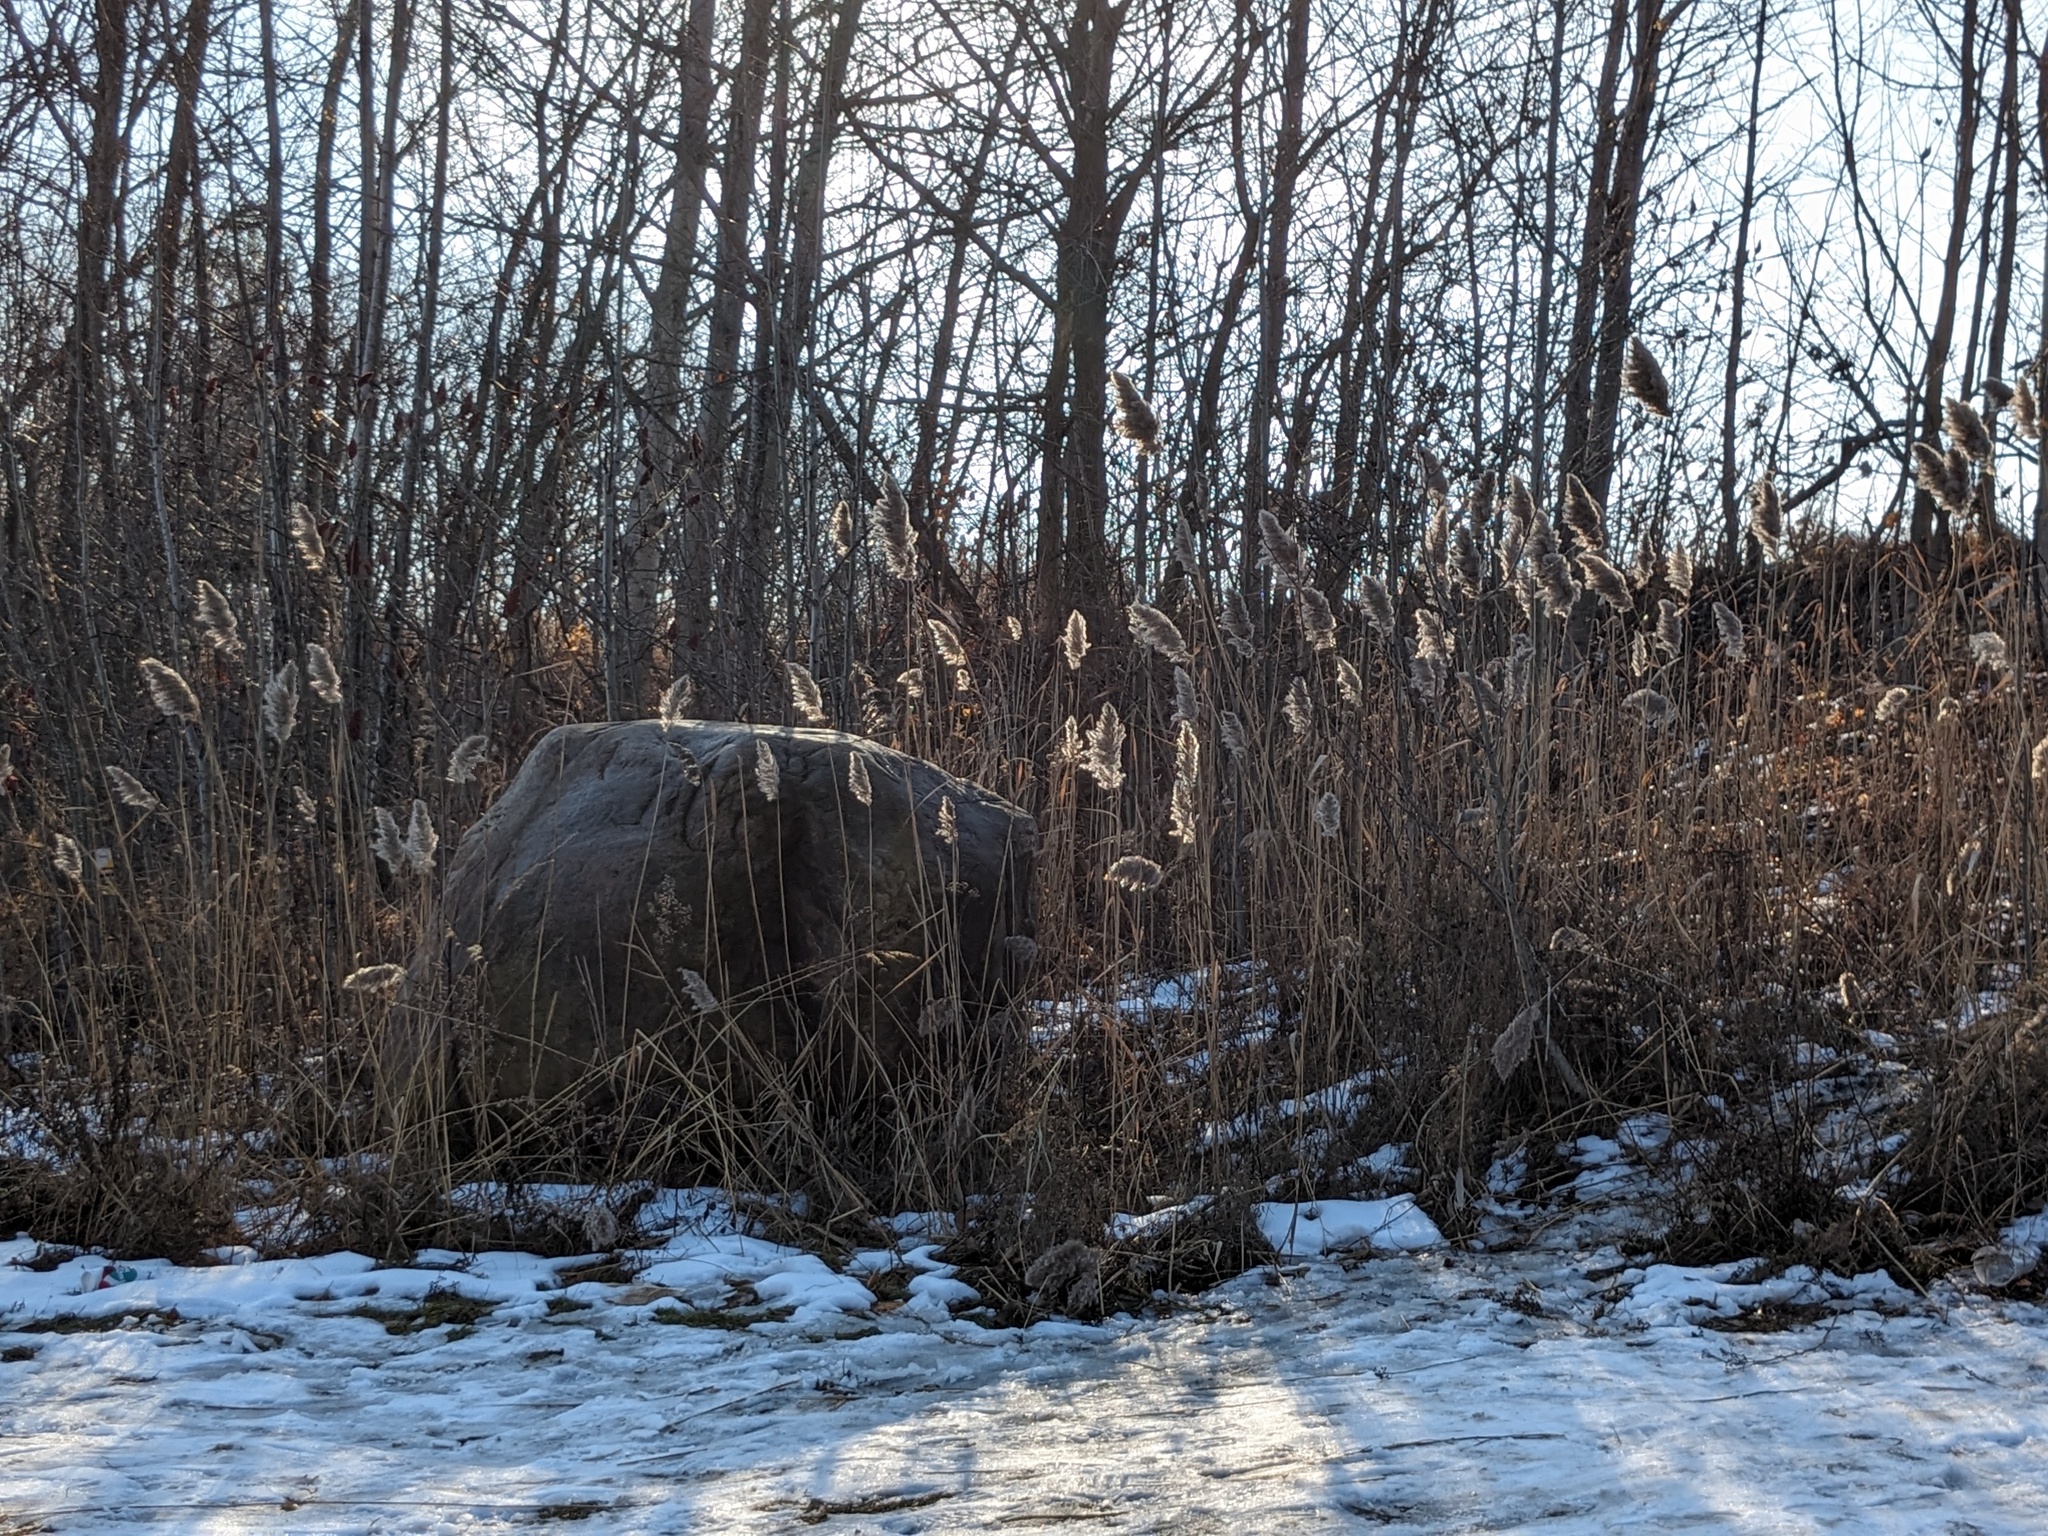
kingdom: Plantae
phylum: Tracheophyta
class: Liliopsida
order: Poales
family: Poaceae
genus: Phragmites
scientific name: Phragmites australis
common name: Common reed
